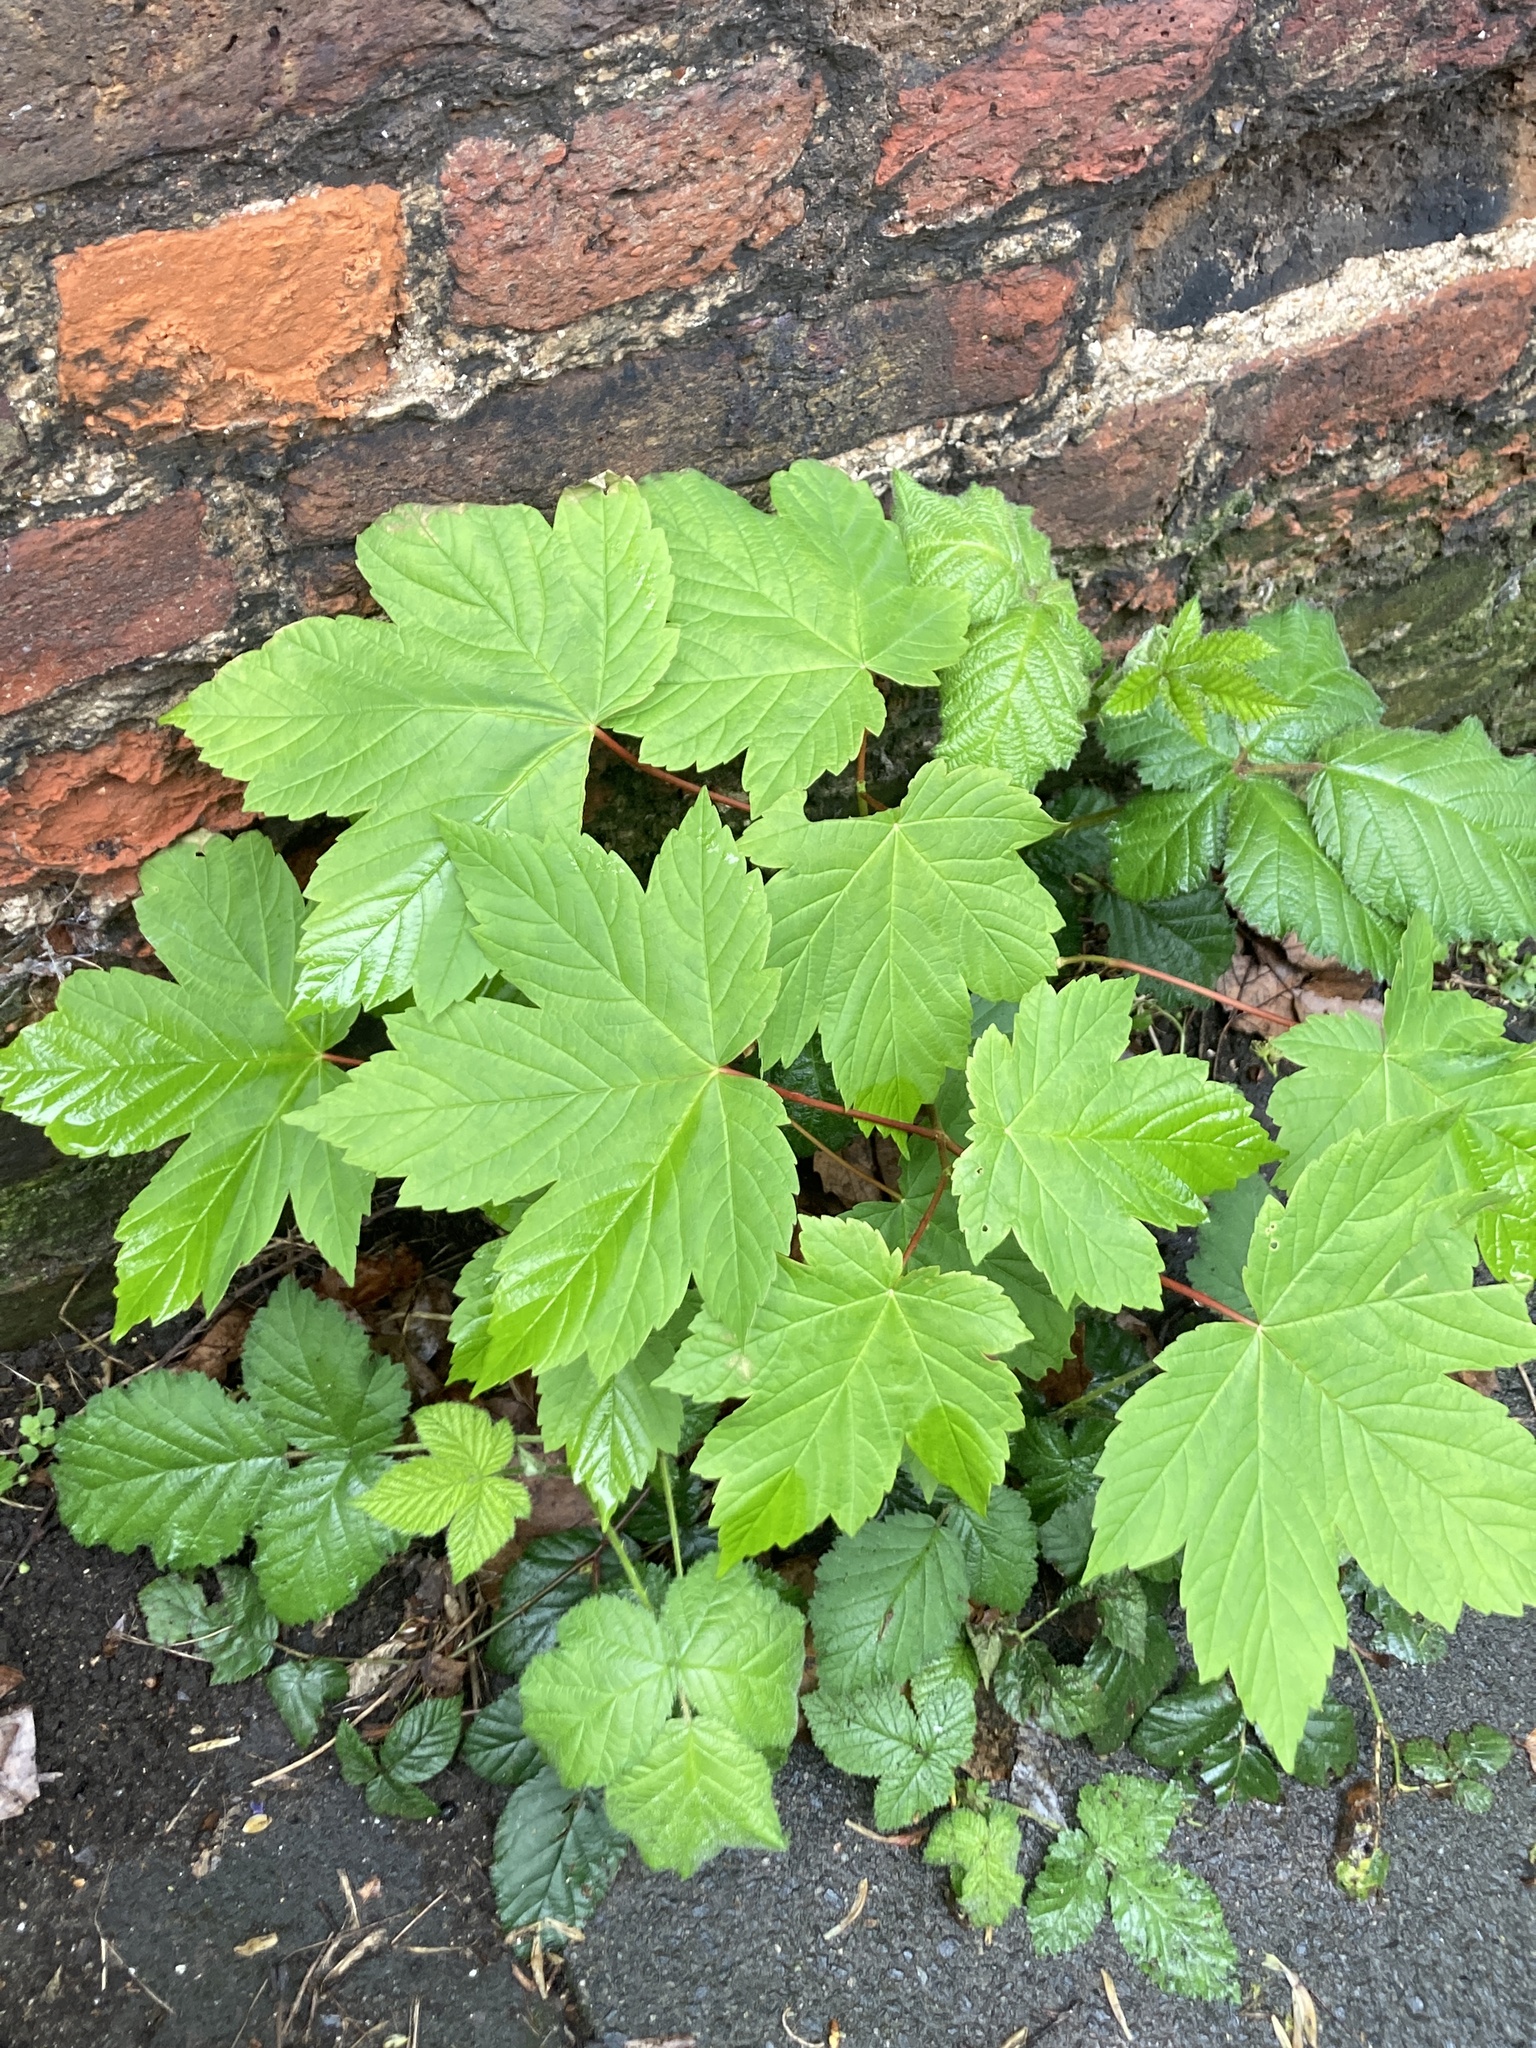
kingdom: Plantae
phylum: Tracheophyta
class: Magnoliopsida
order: Sapindales
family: Sapindaceae
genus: Acer
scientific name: Acer pseudoplatanus
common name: Sycamore
